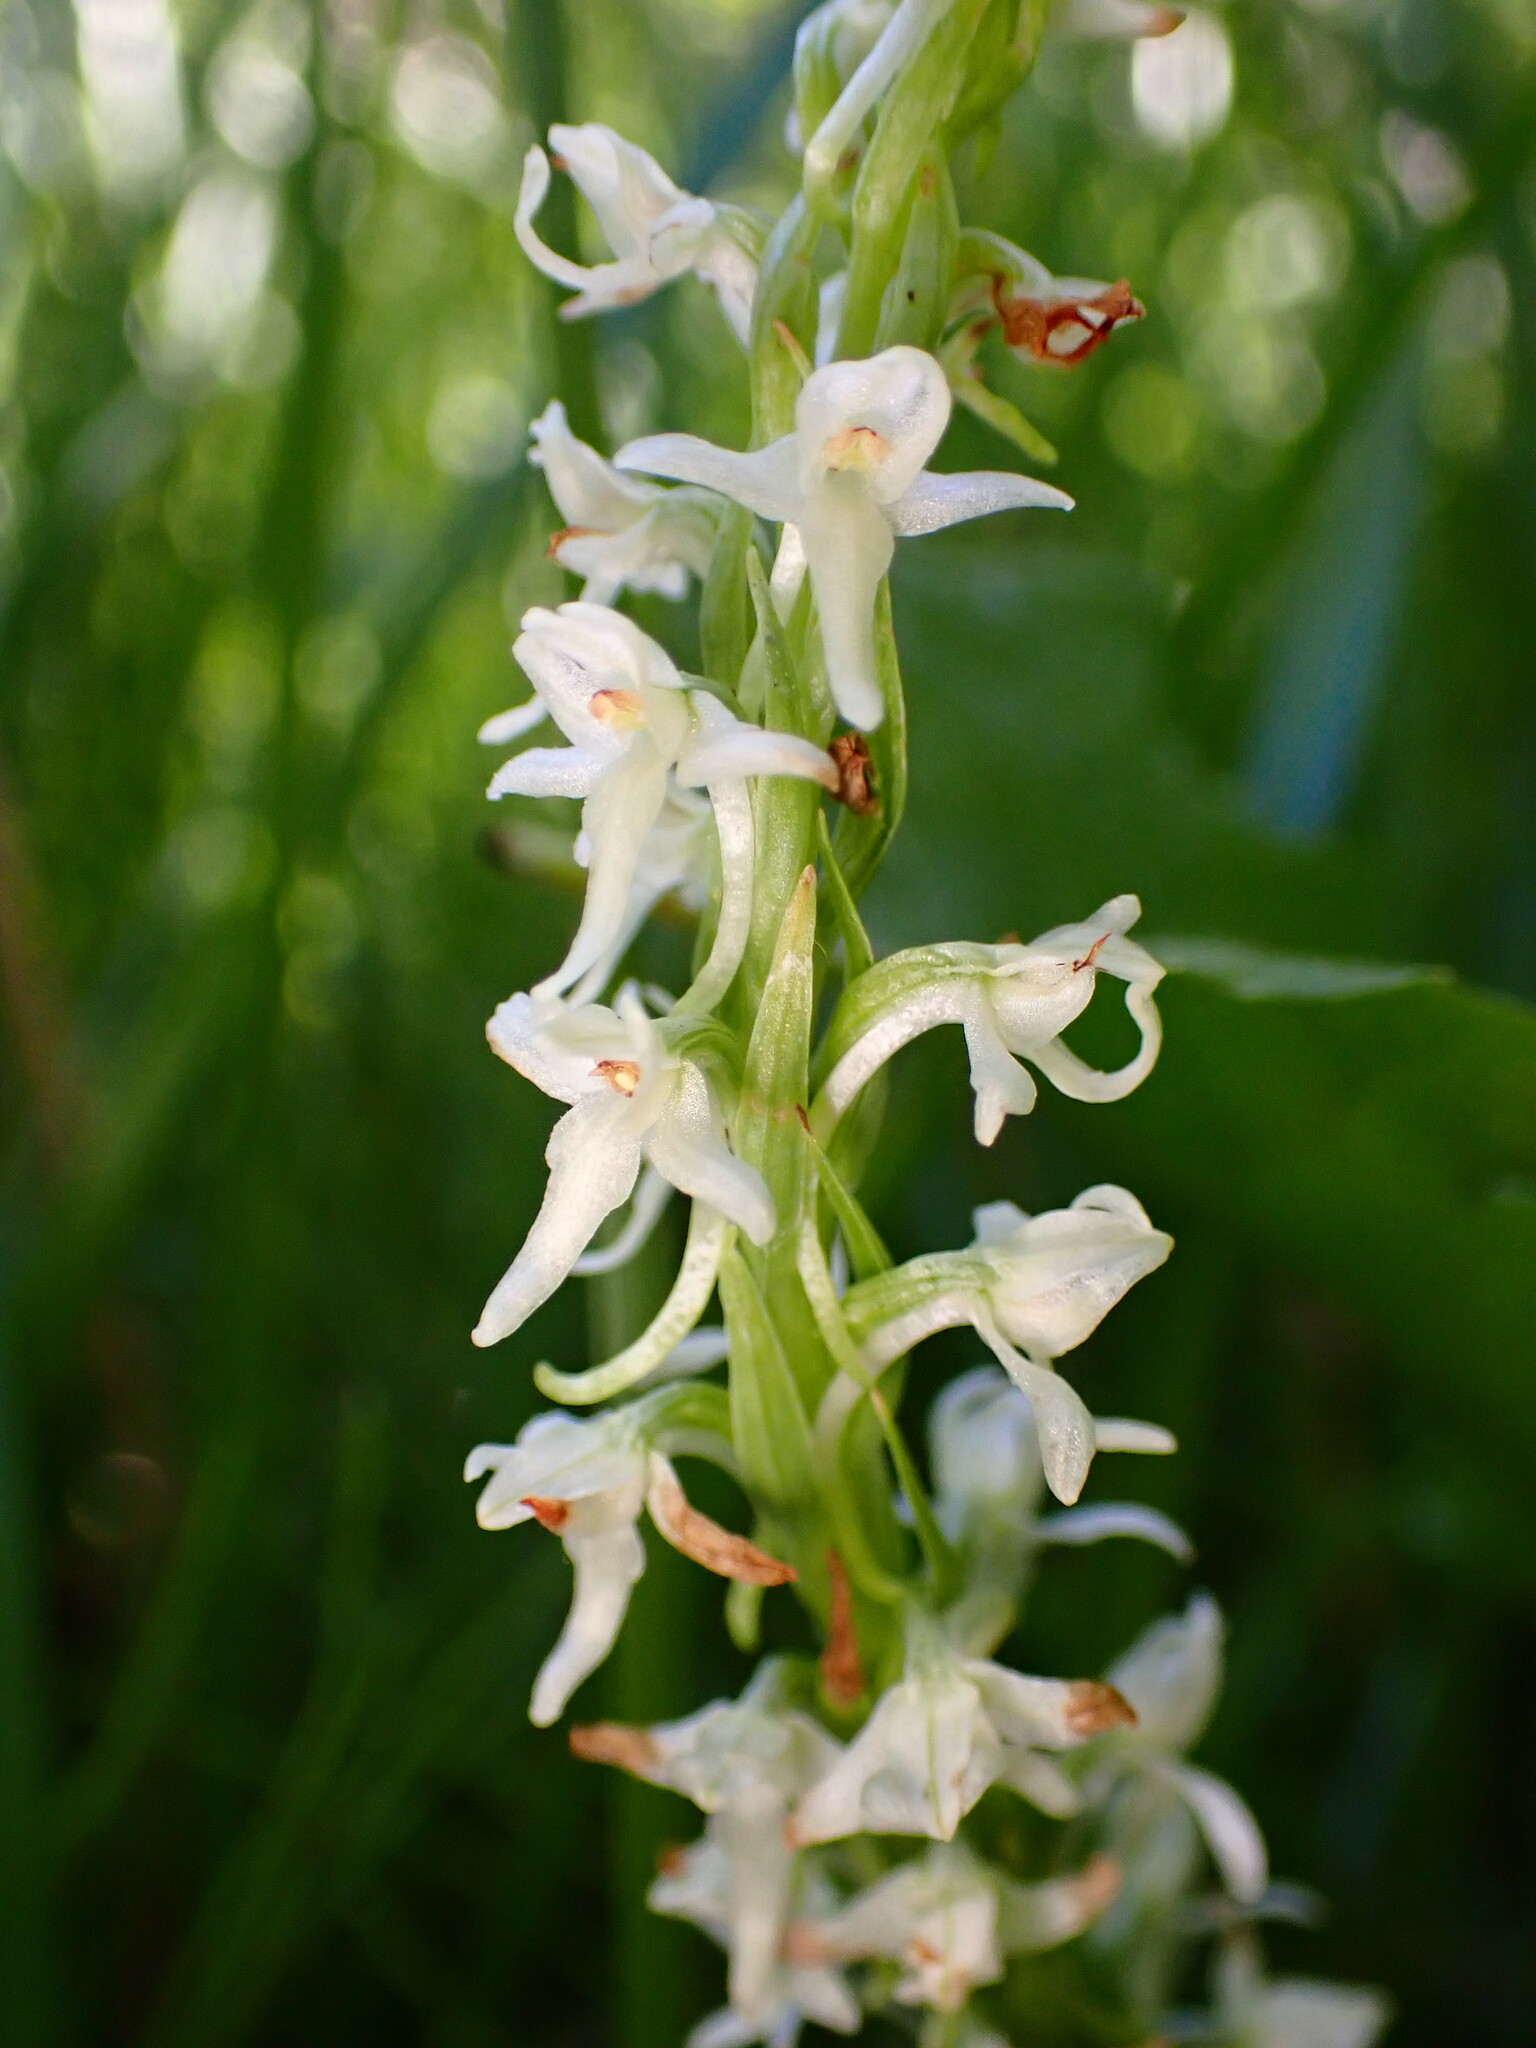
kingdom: Plantae
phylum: Tracheophyta
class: Liliopsida
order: Asparagales
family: Orchidaceae
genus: Platanthera
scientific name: Platanthera dilatata
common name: Bog candles
